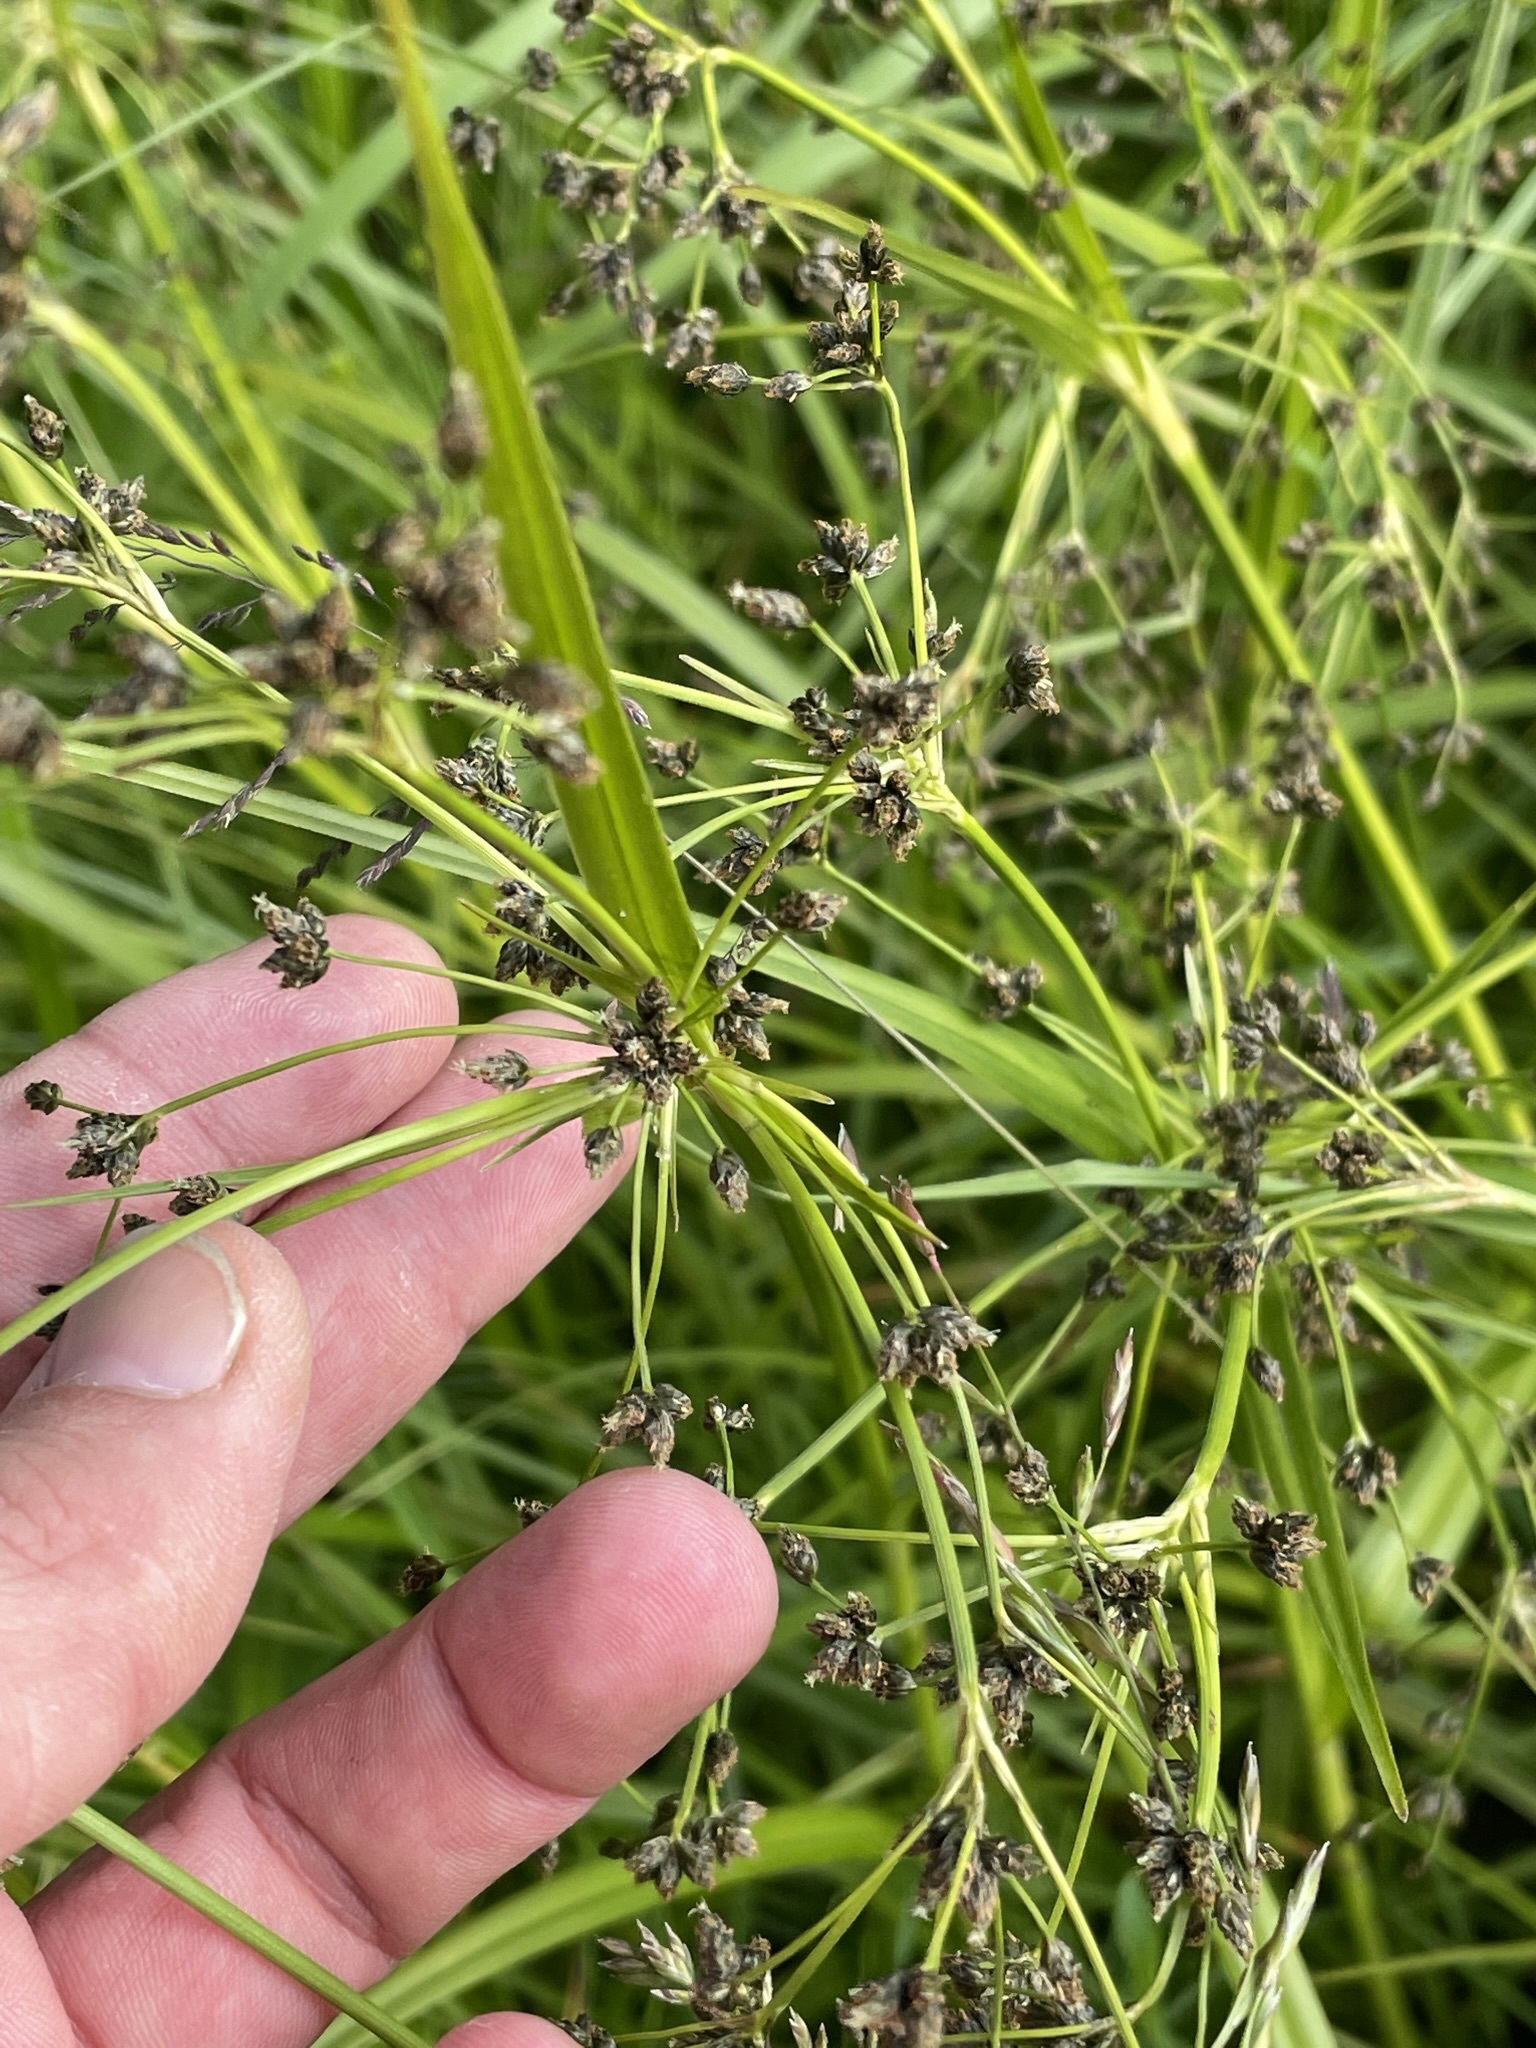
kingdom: Plantae
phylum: Tracheophyta
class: Liliopsida
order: Poales
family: Cyperaceae
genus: Scirpus
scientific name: Scirpus sylvaticus
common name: Wood club-rush
